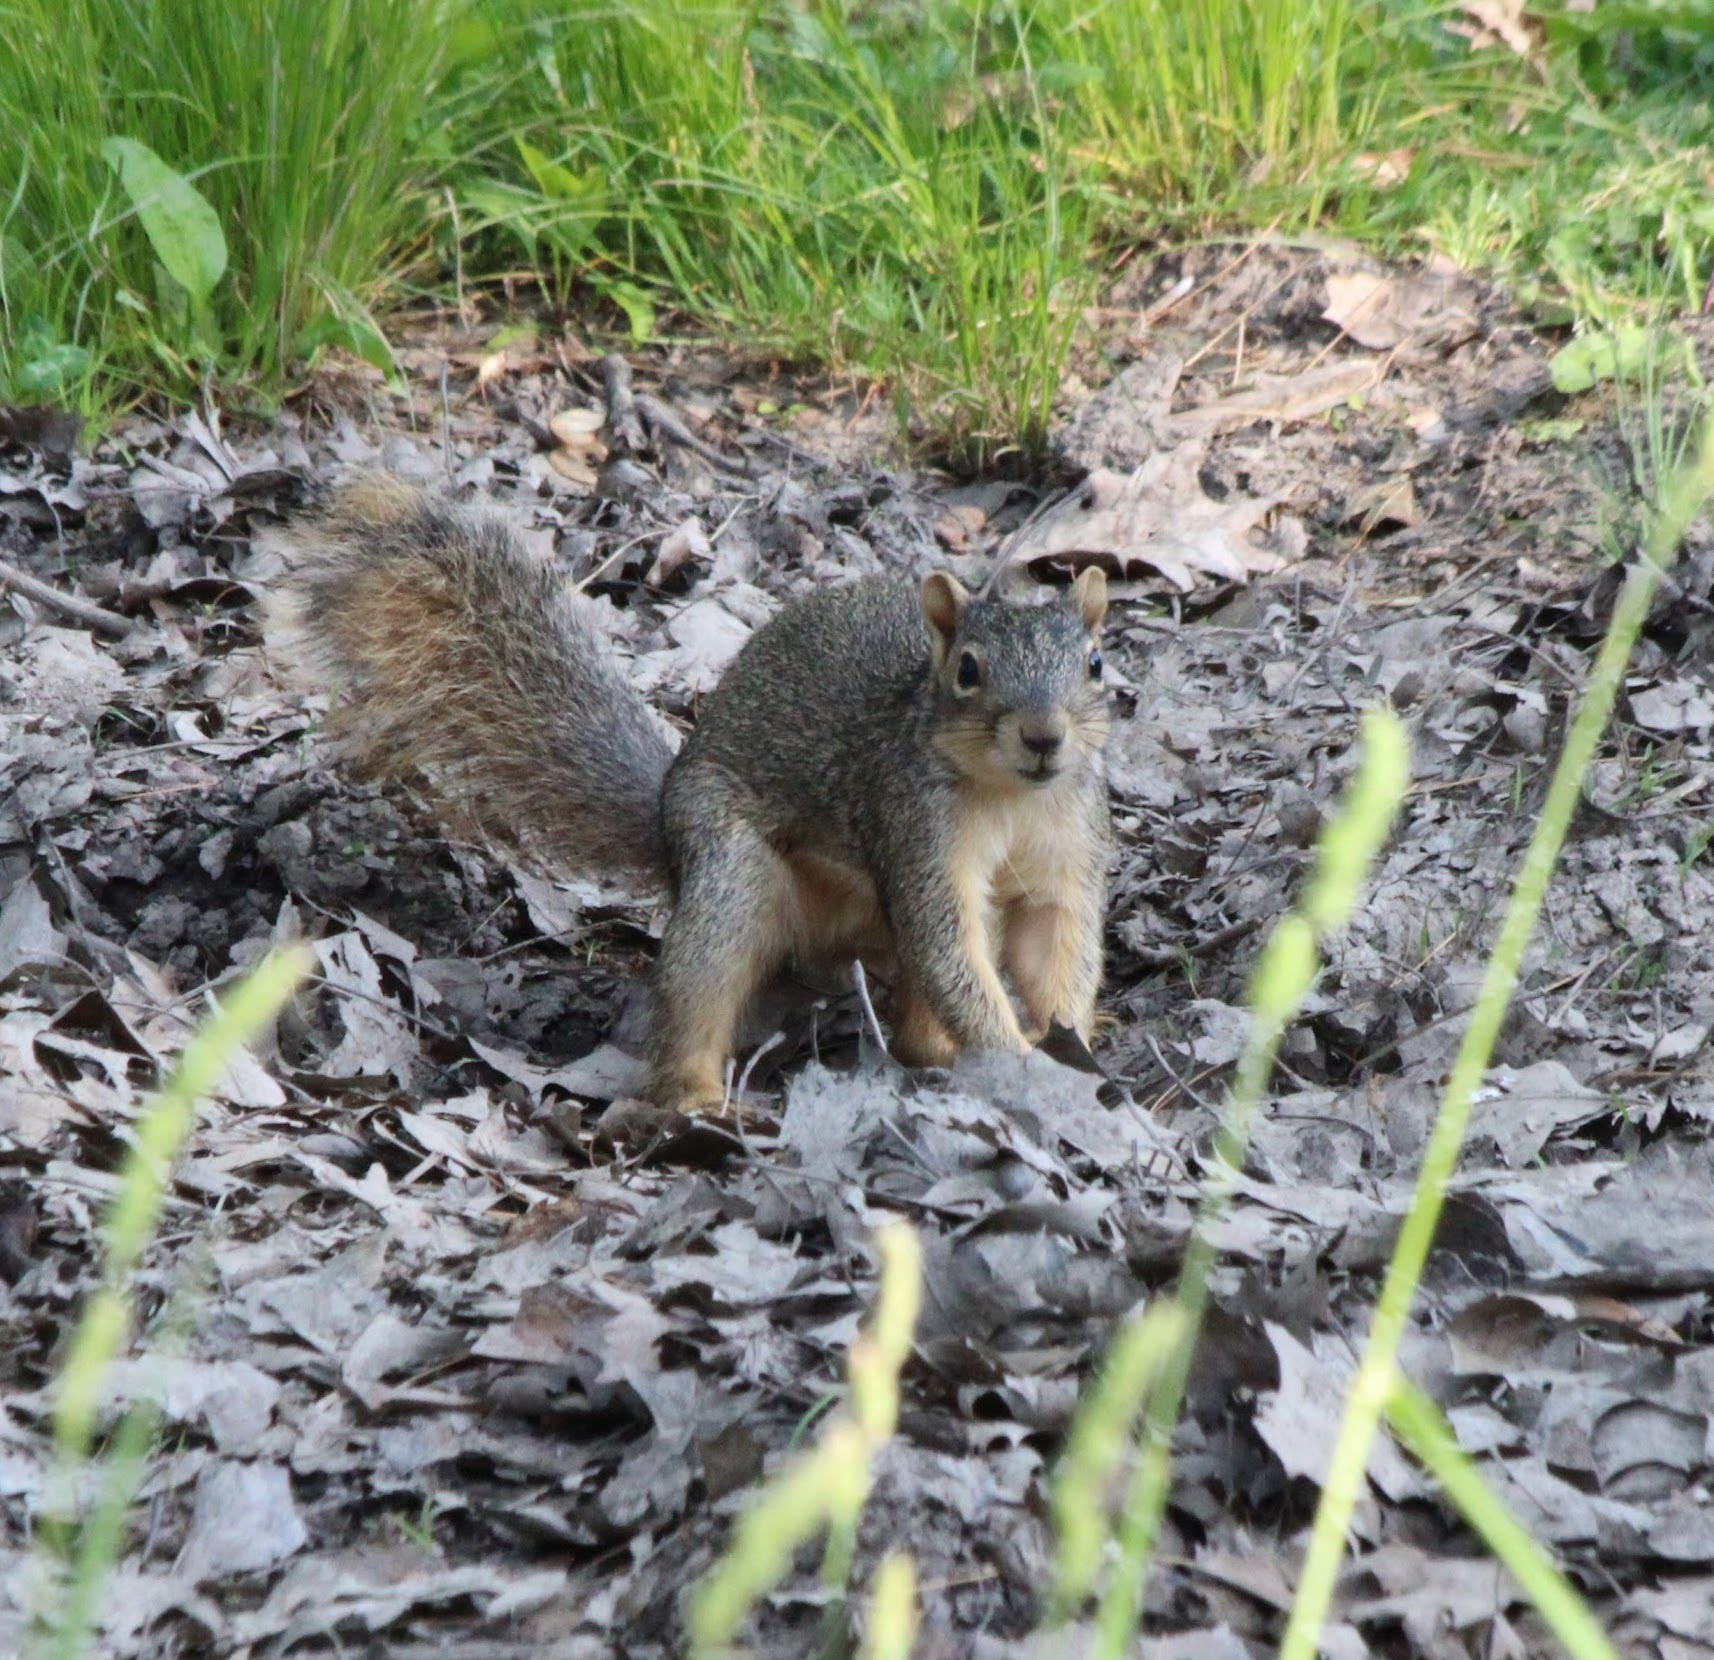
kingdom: Animalia
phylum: Chordata
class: Mammalia
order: Rodentia
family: Sciuridae
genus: Sciurus
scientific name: Sciurus niger
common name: Fox squirrel
